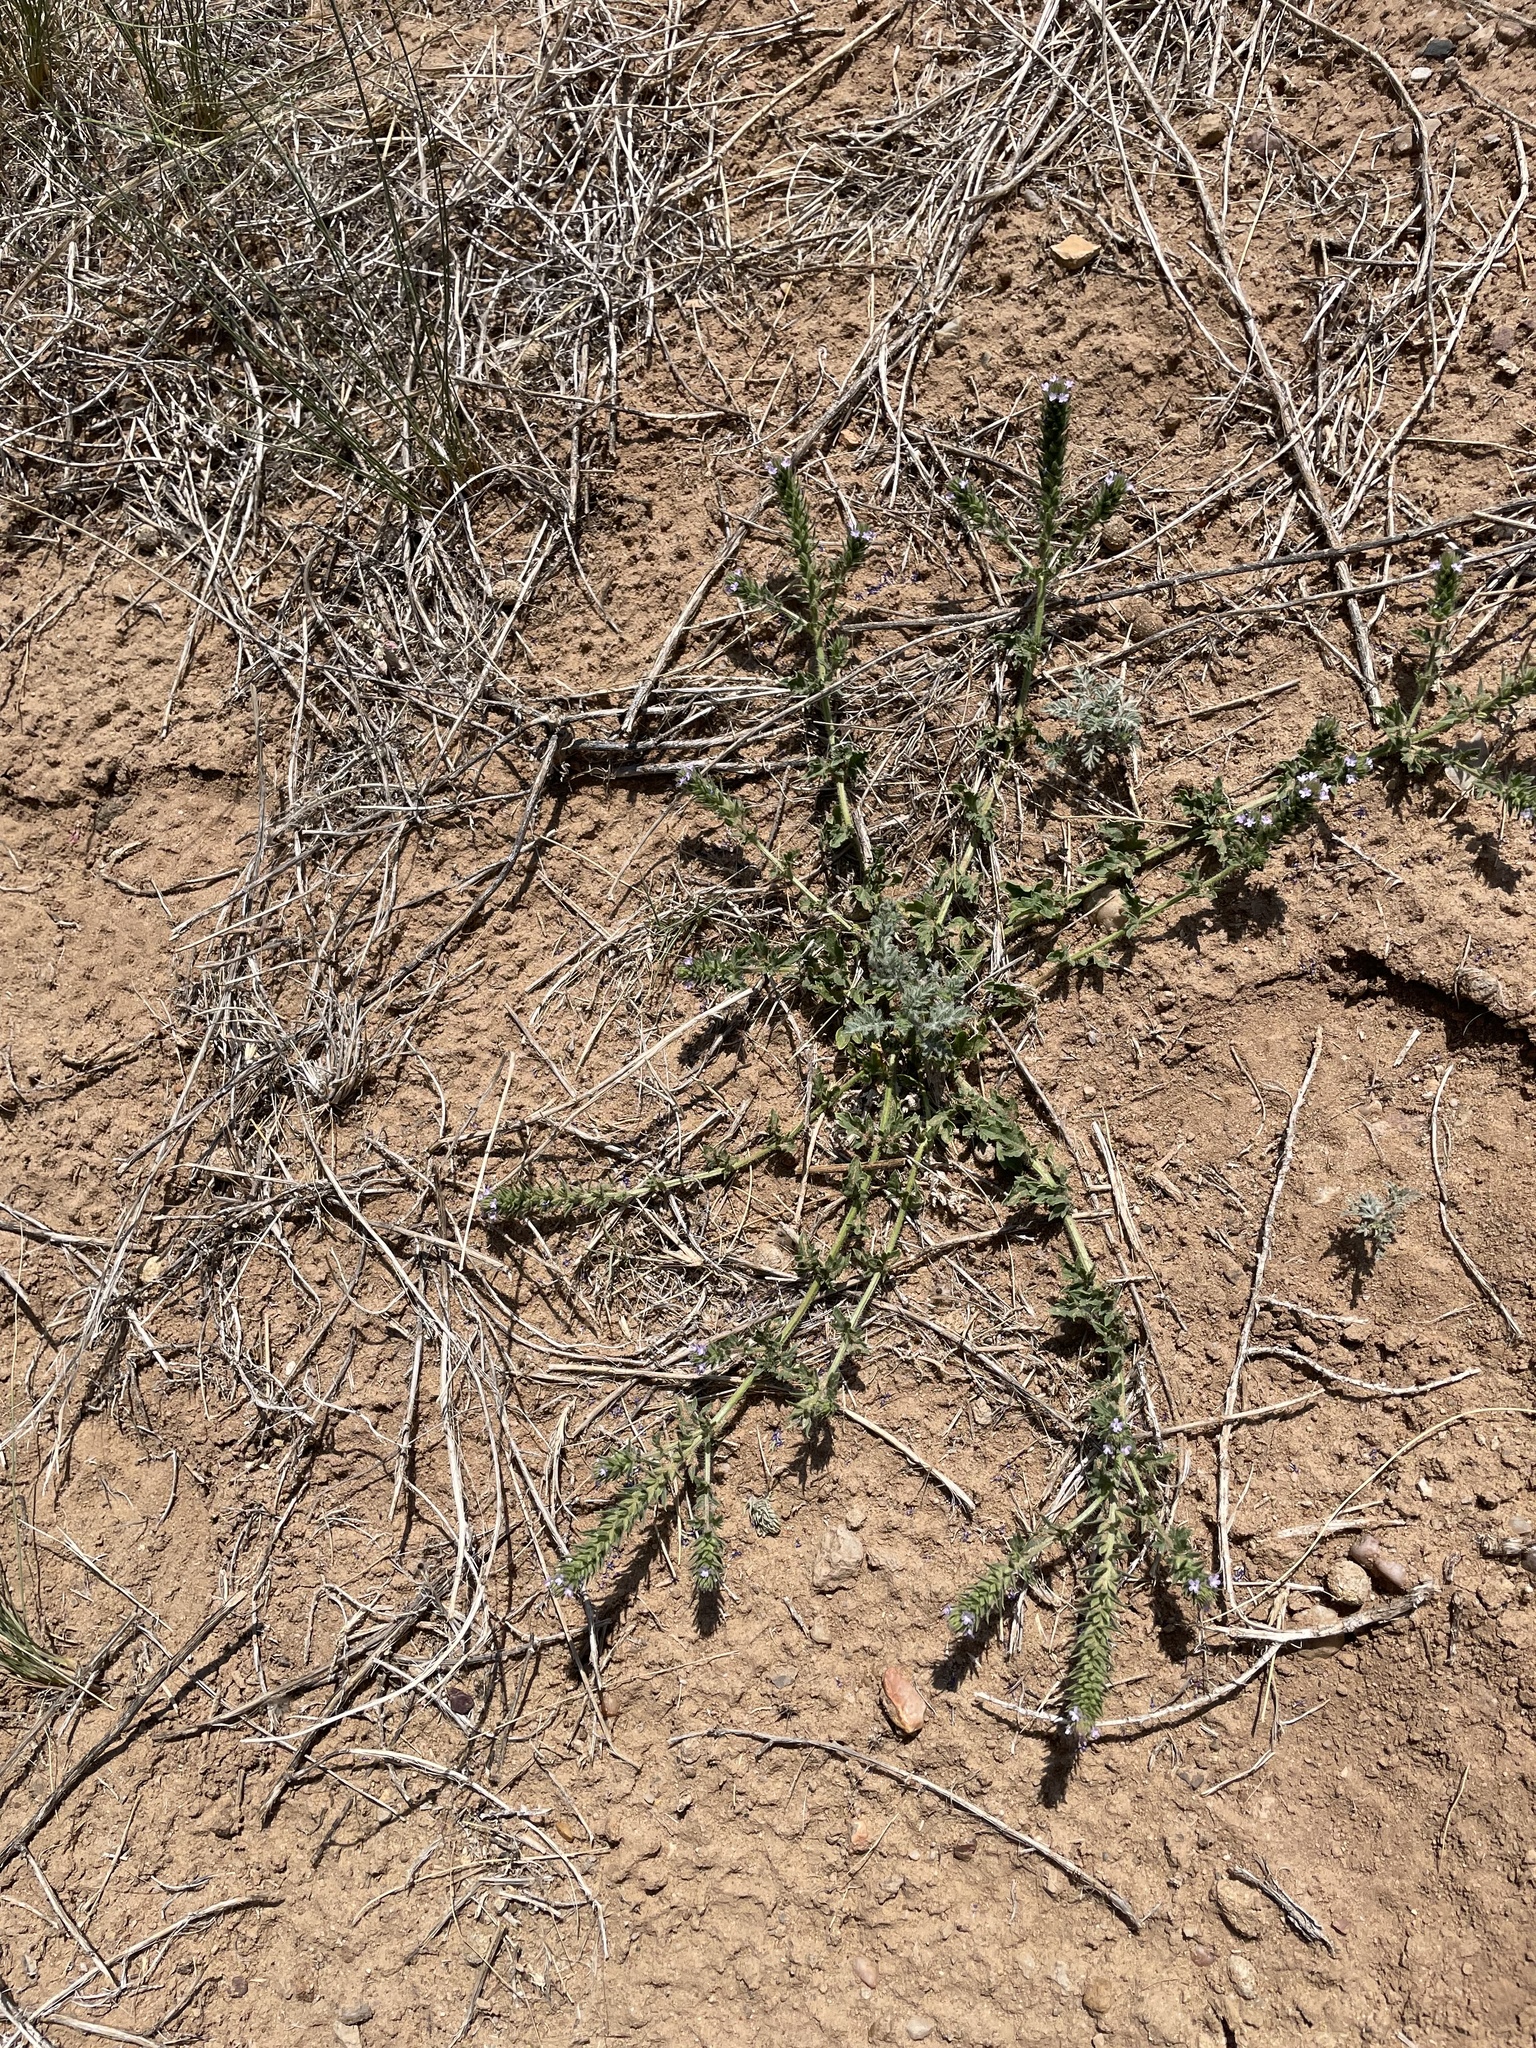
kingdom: Plantae
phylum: Tracheophyta
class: Magnoliopsida
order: Lamiales
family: Verbenaceae
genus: Verbena
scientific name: Verbena bracteata
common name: Bracted vervain
